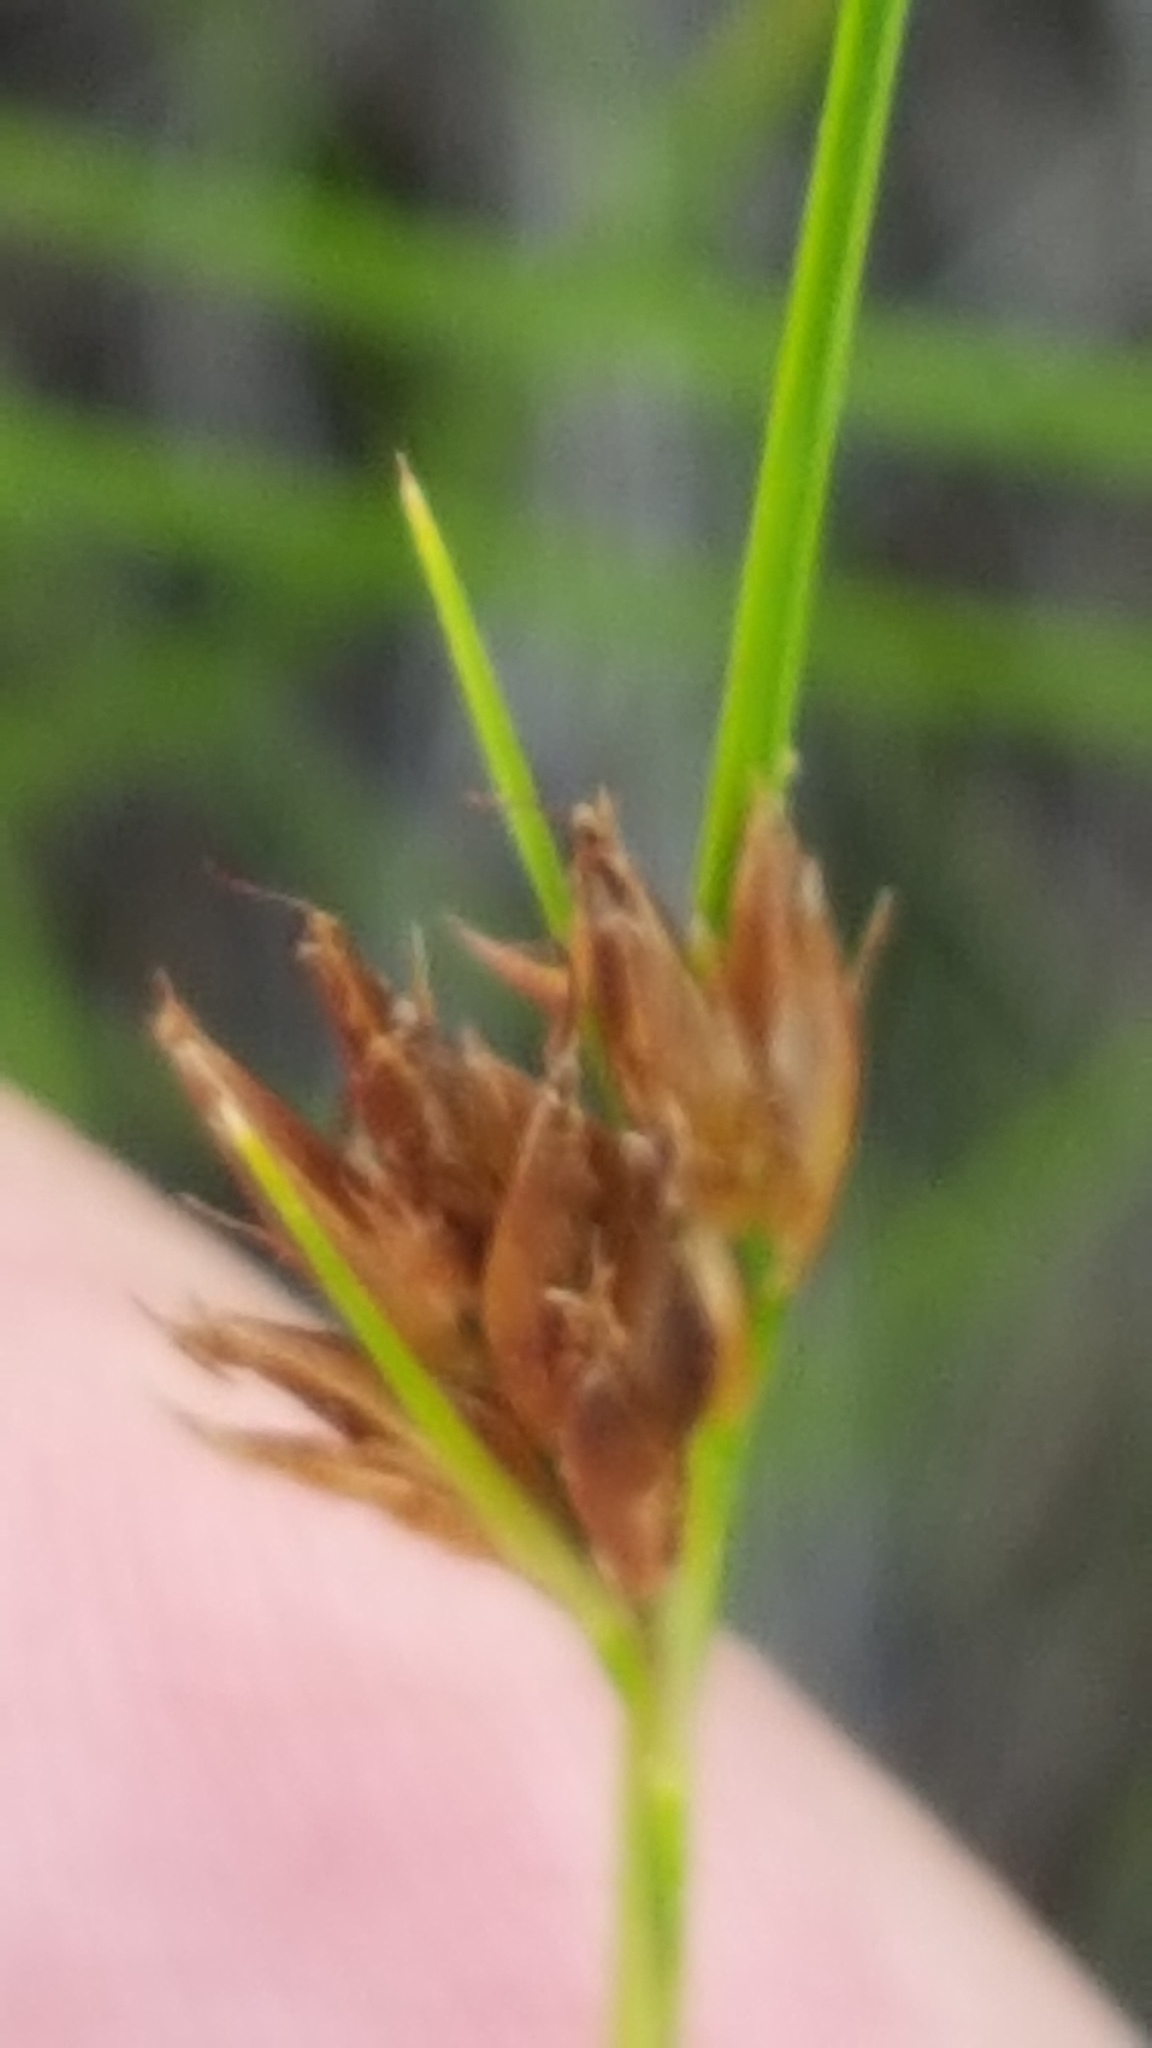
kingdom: Plantae
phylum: Tracheophyta
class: Liliopsida
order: Poales
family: Cyperaceae
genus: Rhynchospora
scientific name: Rhynchospora fusca
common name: Brown beak-sedge
